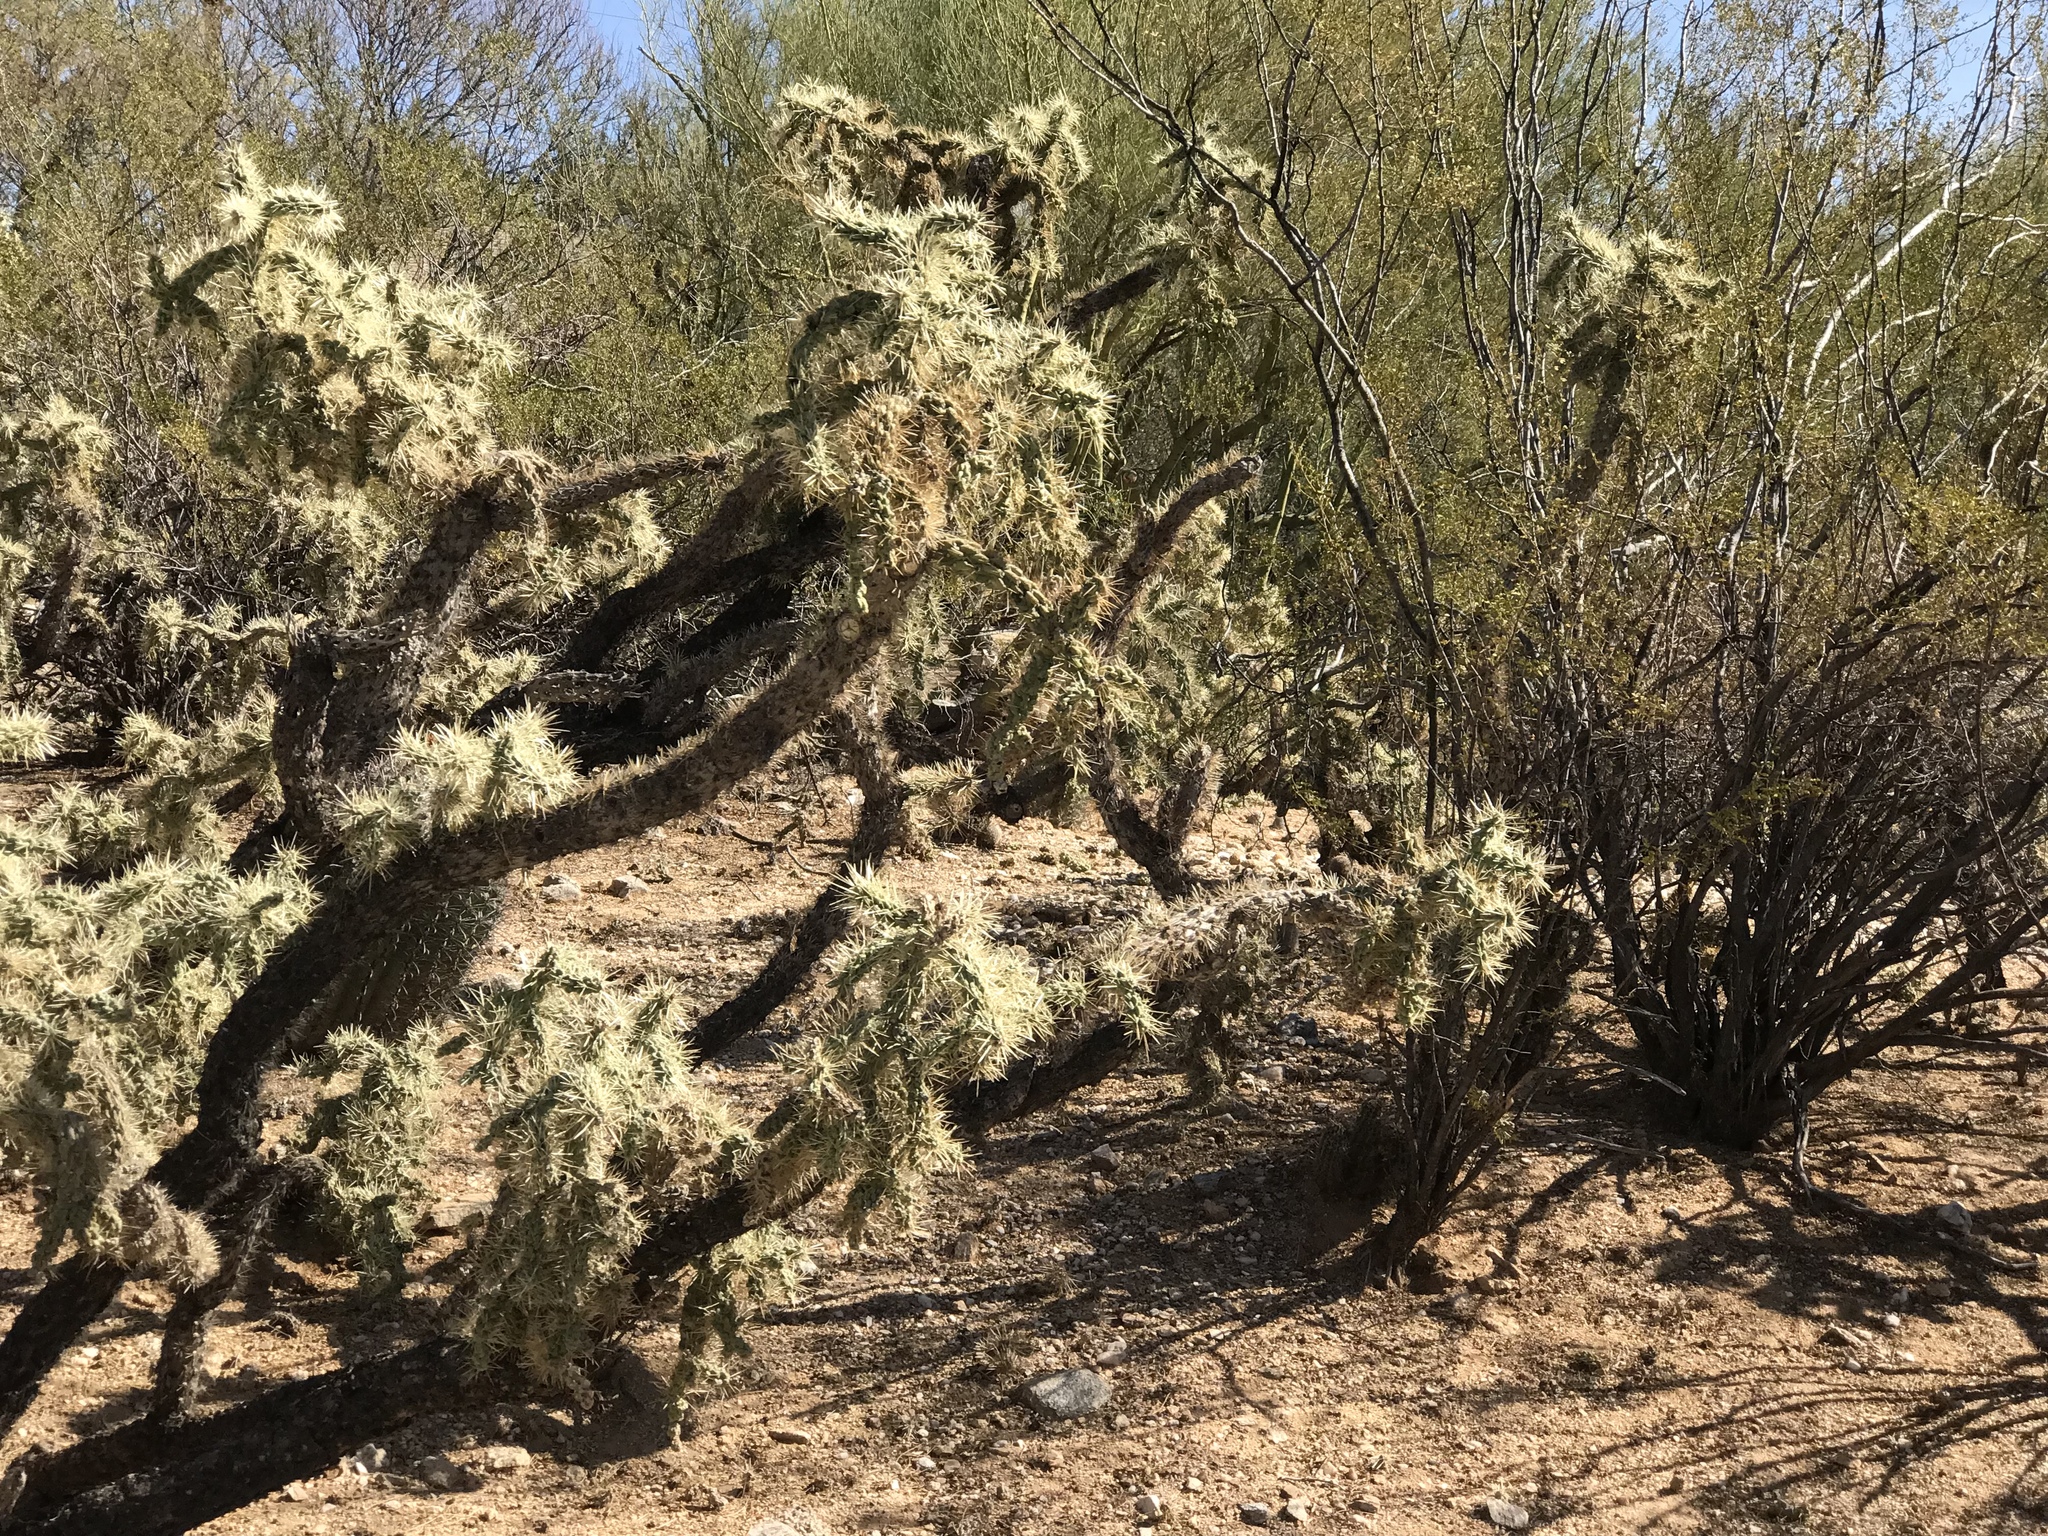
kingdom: Plantae
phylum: Tracheophyta
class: Magnoliopsida
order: Caryophyllales
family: Cactaceae
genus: Cylindropuntia
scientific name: Cylindropuntia fulgida
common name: Jumping cholla
